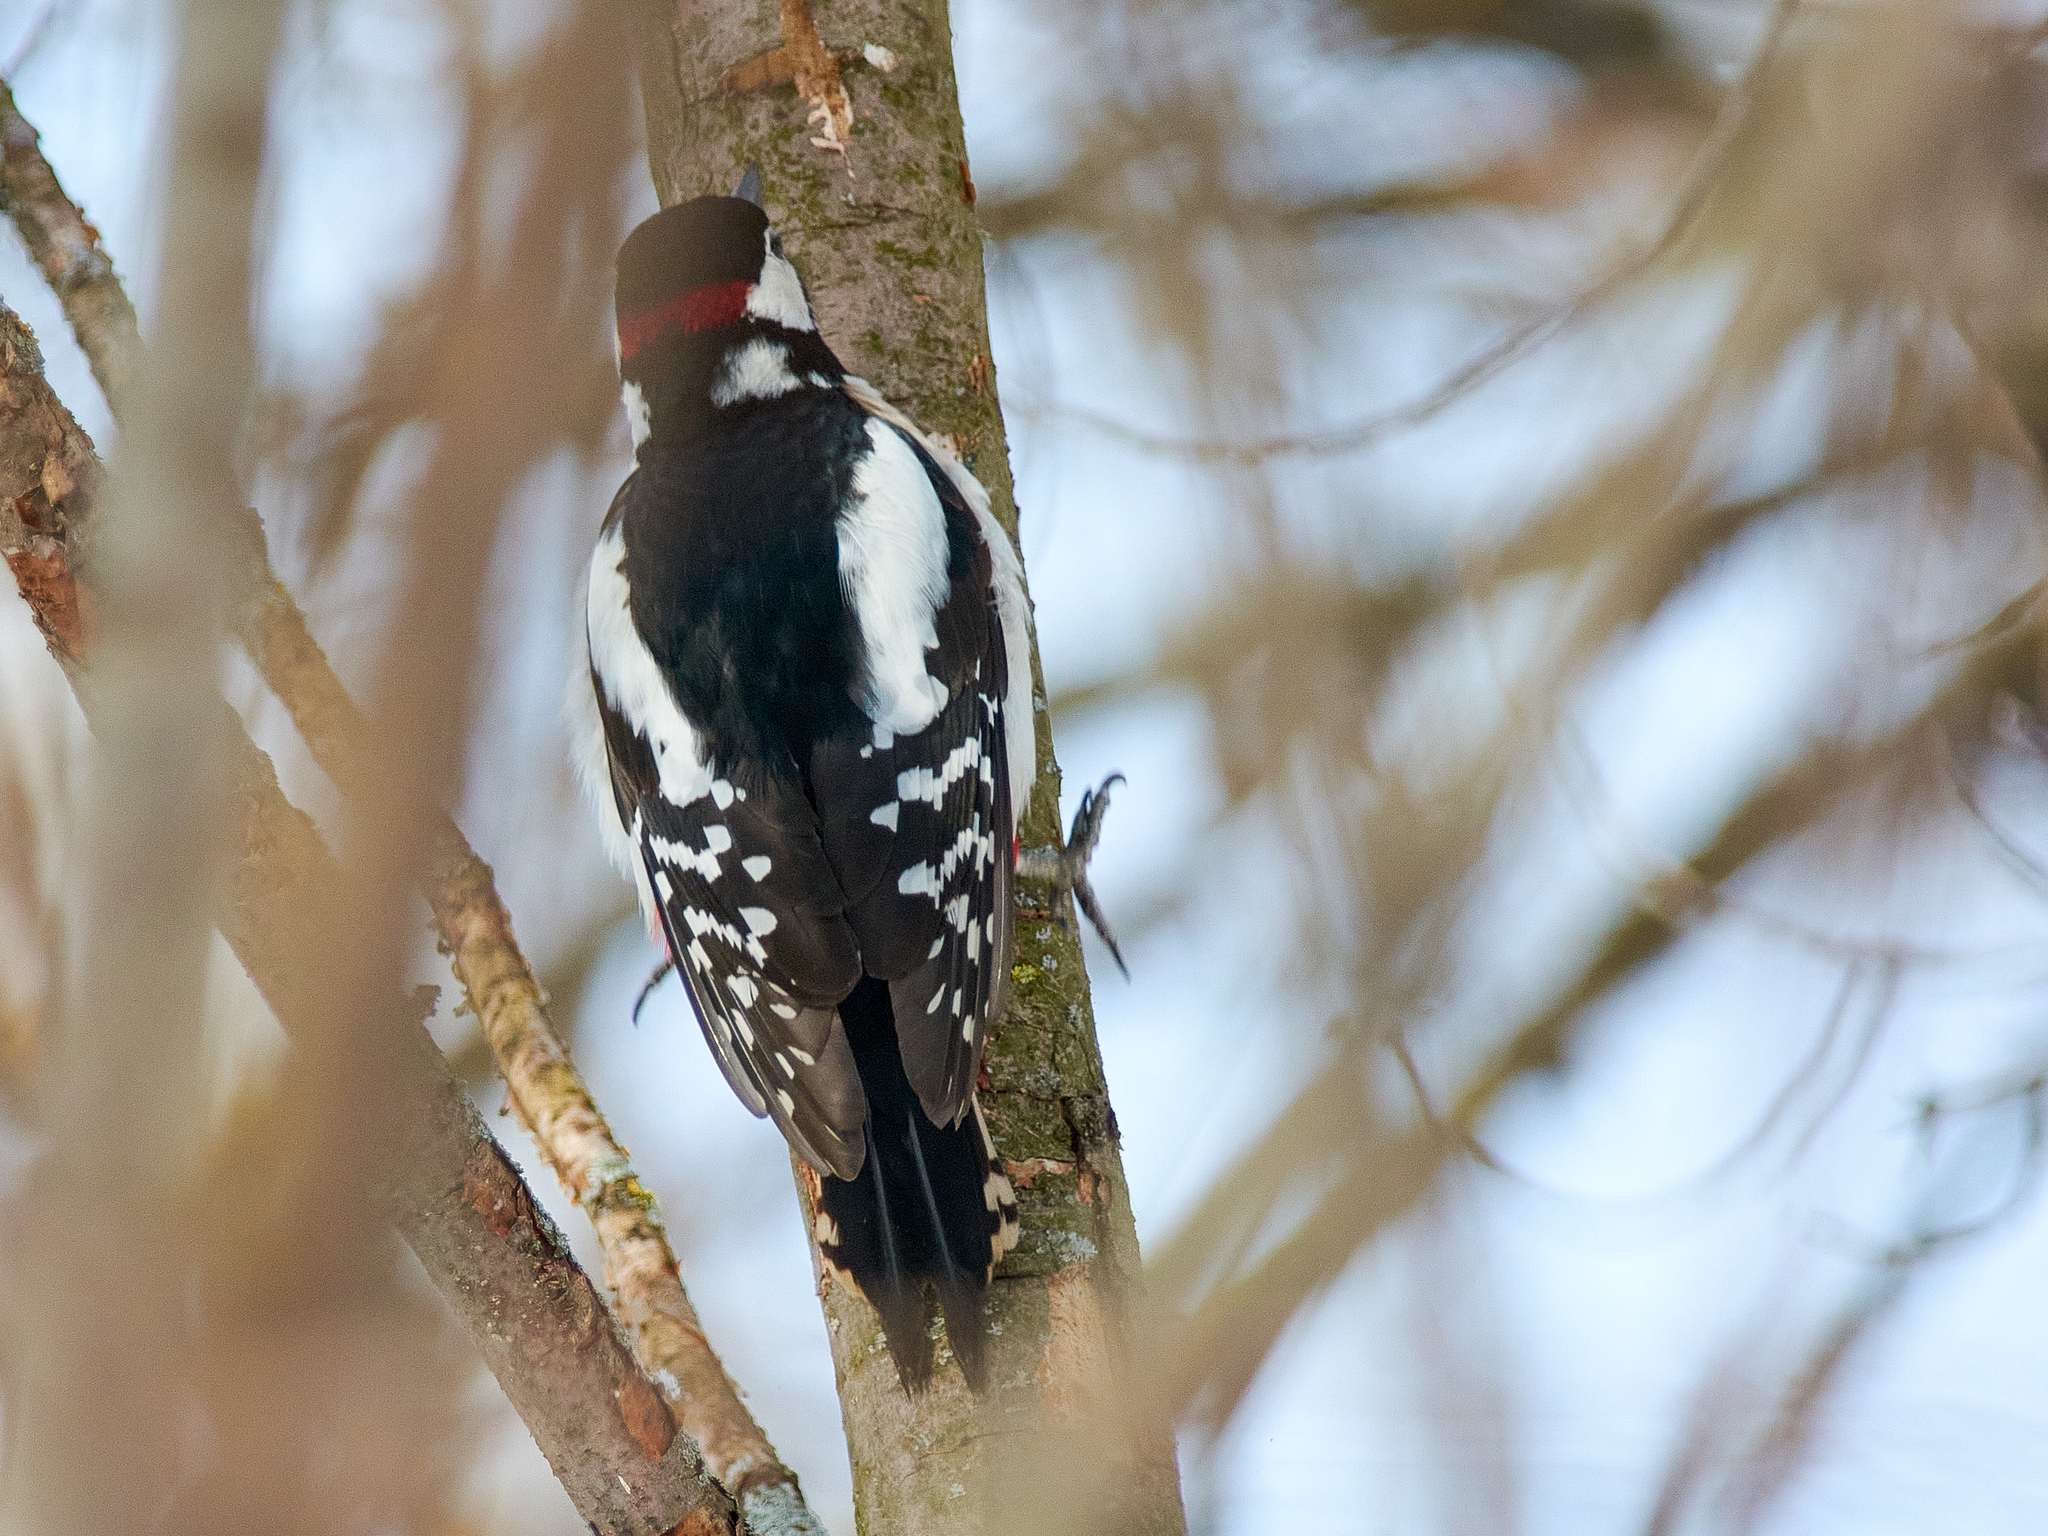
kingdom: Animalia
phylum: Chordata
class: Aves
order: Piciformes
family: Picidae
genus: Dendrocopos
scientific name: Dendrocopos major
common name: Great spotted woodpecker
